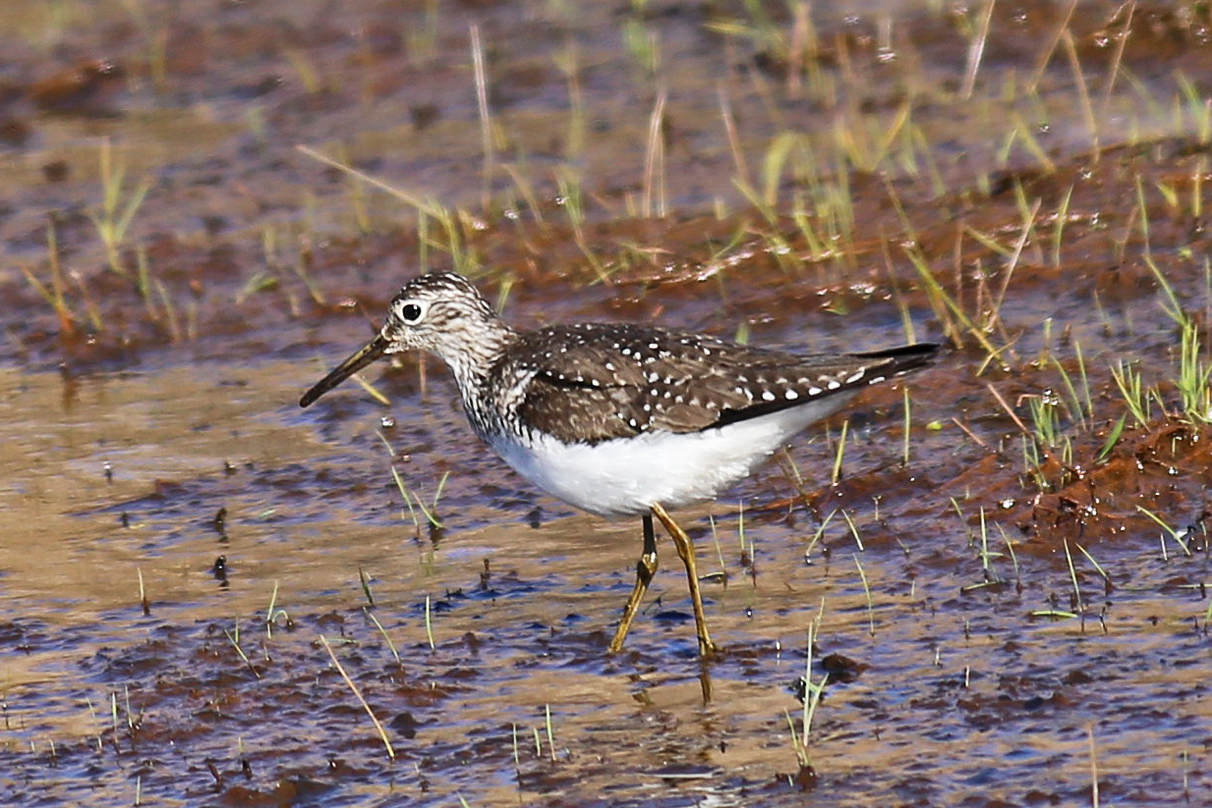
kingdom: Animalia
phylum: Chordata
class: Aves
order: Charadriiformes
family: Scolopacidae
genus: Tringa
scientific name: Tringa solitaria
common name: Solitary sandpiper
